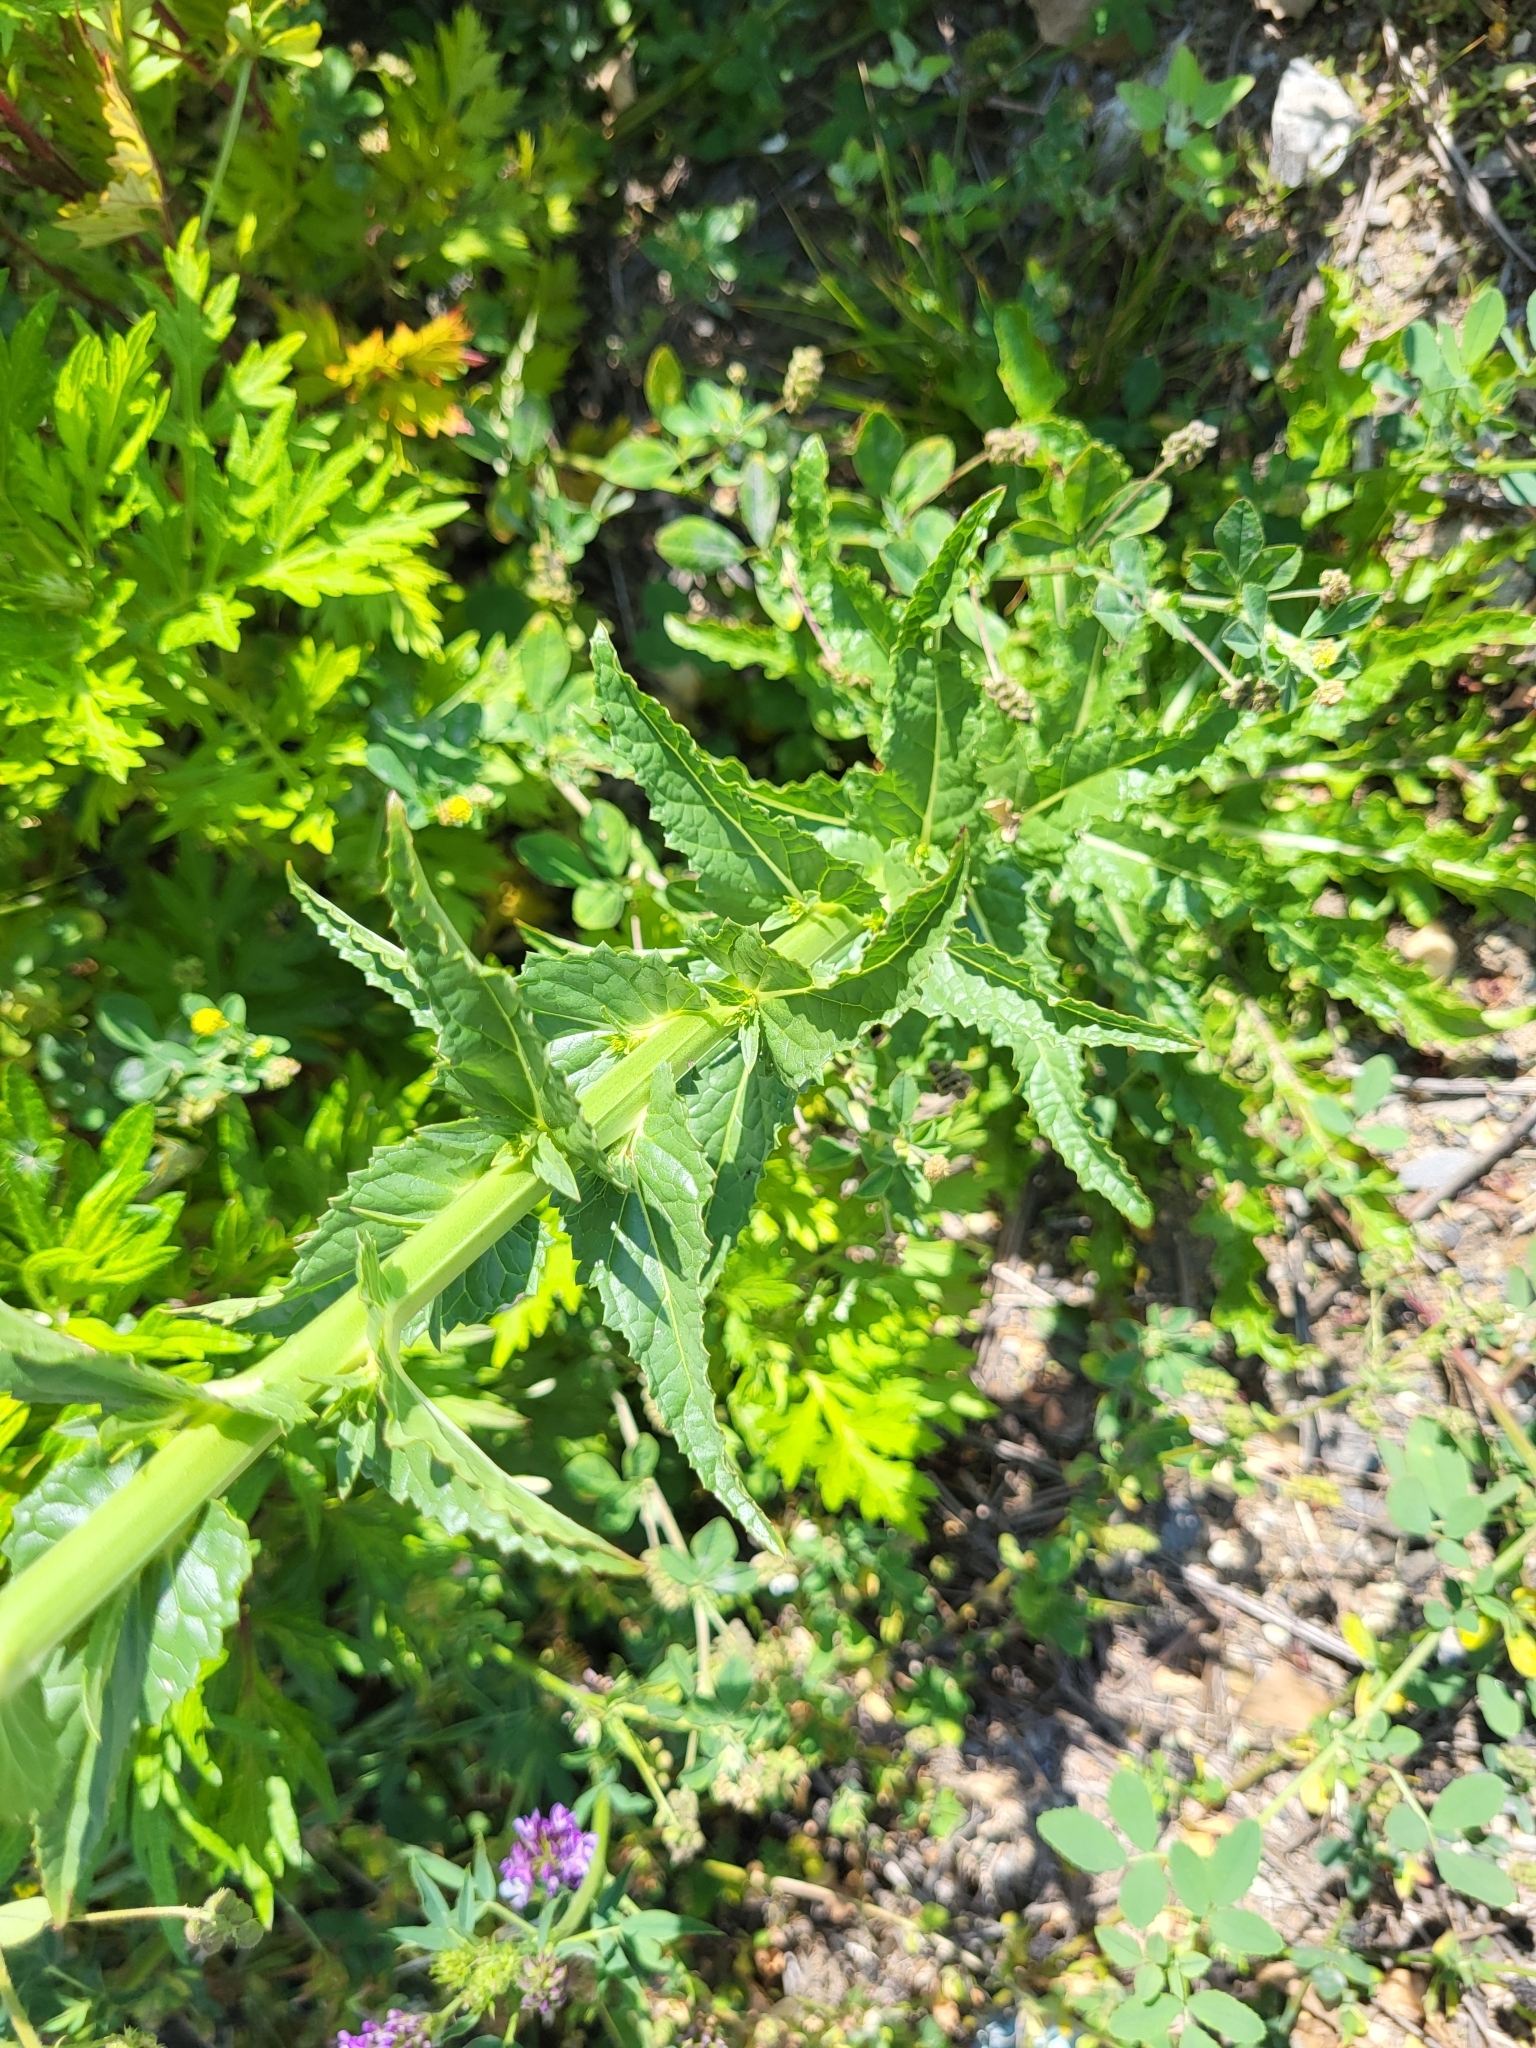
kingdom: Plantae
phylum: Tracheophyta
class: Magnoliopsida
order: Lamiales
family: Scrophulariaceae
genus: Verbascum
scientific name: Verbascum blattaria
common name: Moth mullein
